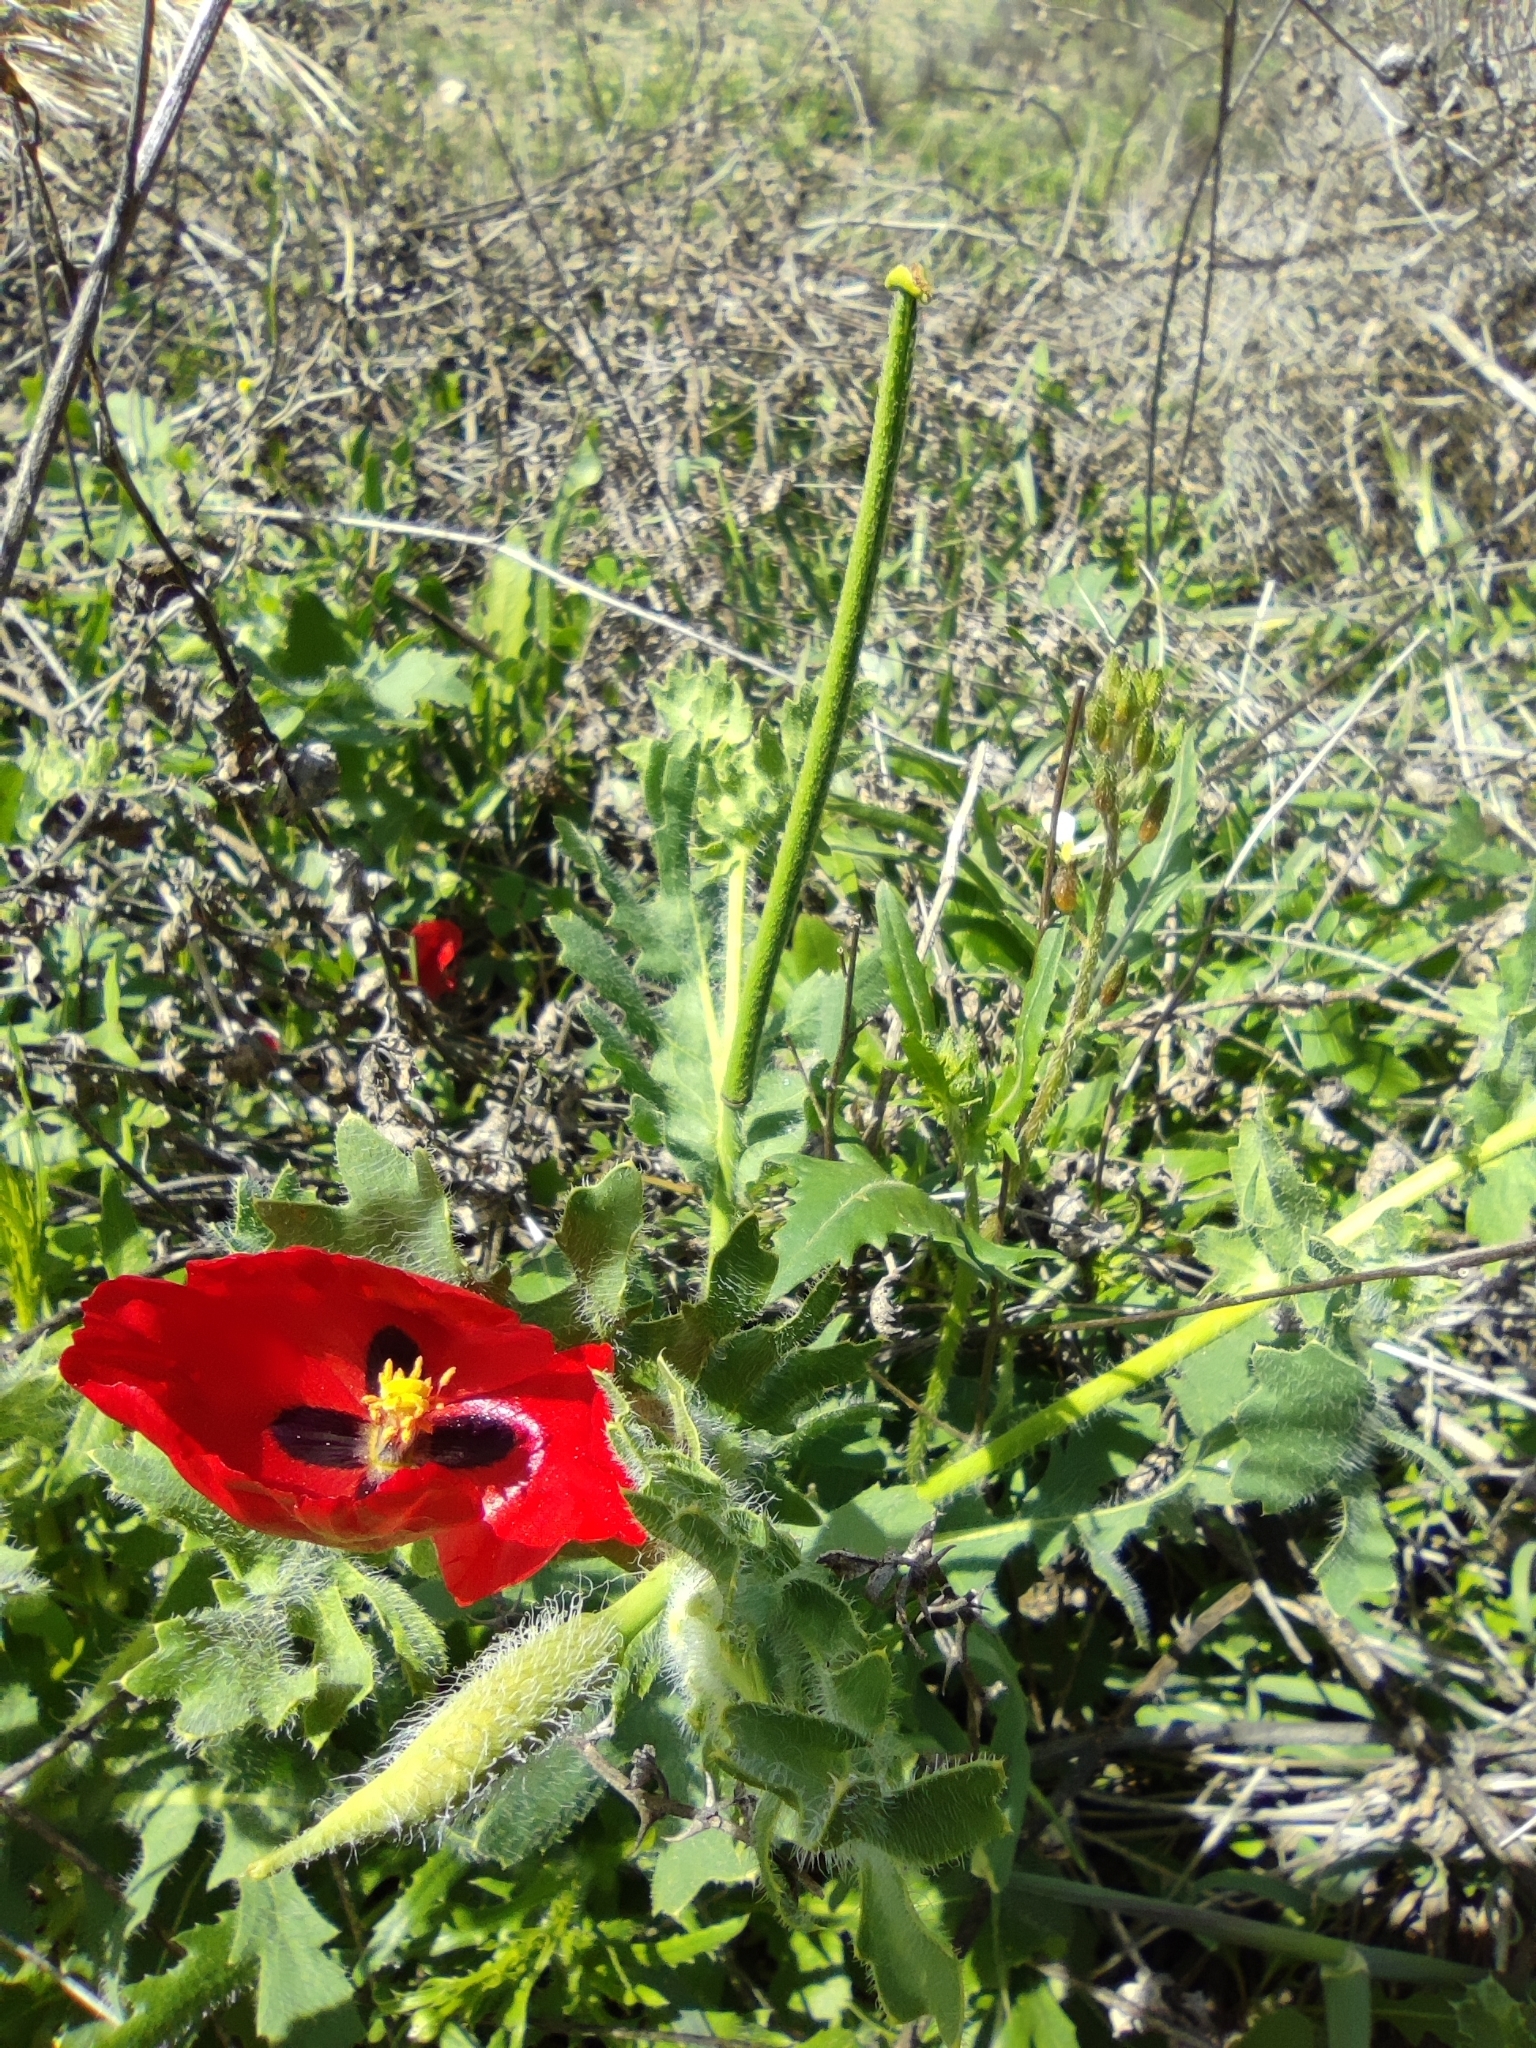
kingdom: Plantae
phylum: Tracheophyta
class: Magnoliopsida
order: Ranunculales
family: Papaveraceae
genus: Glaucium
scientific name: Glaucium corniculatum
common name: Red horned-poppy
